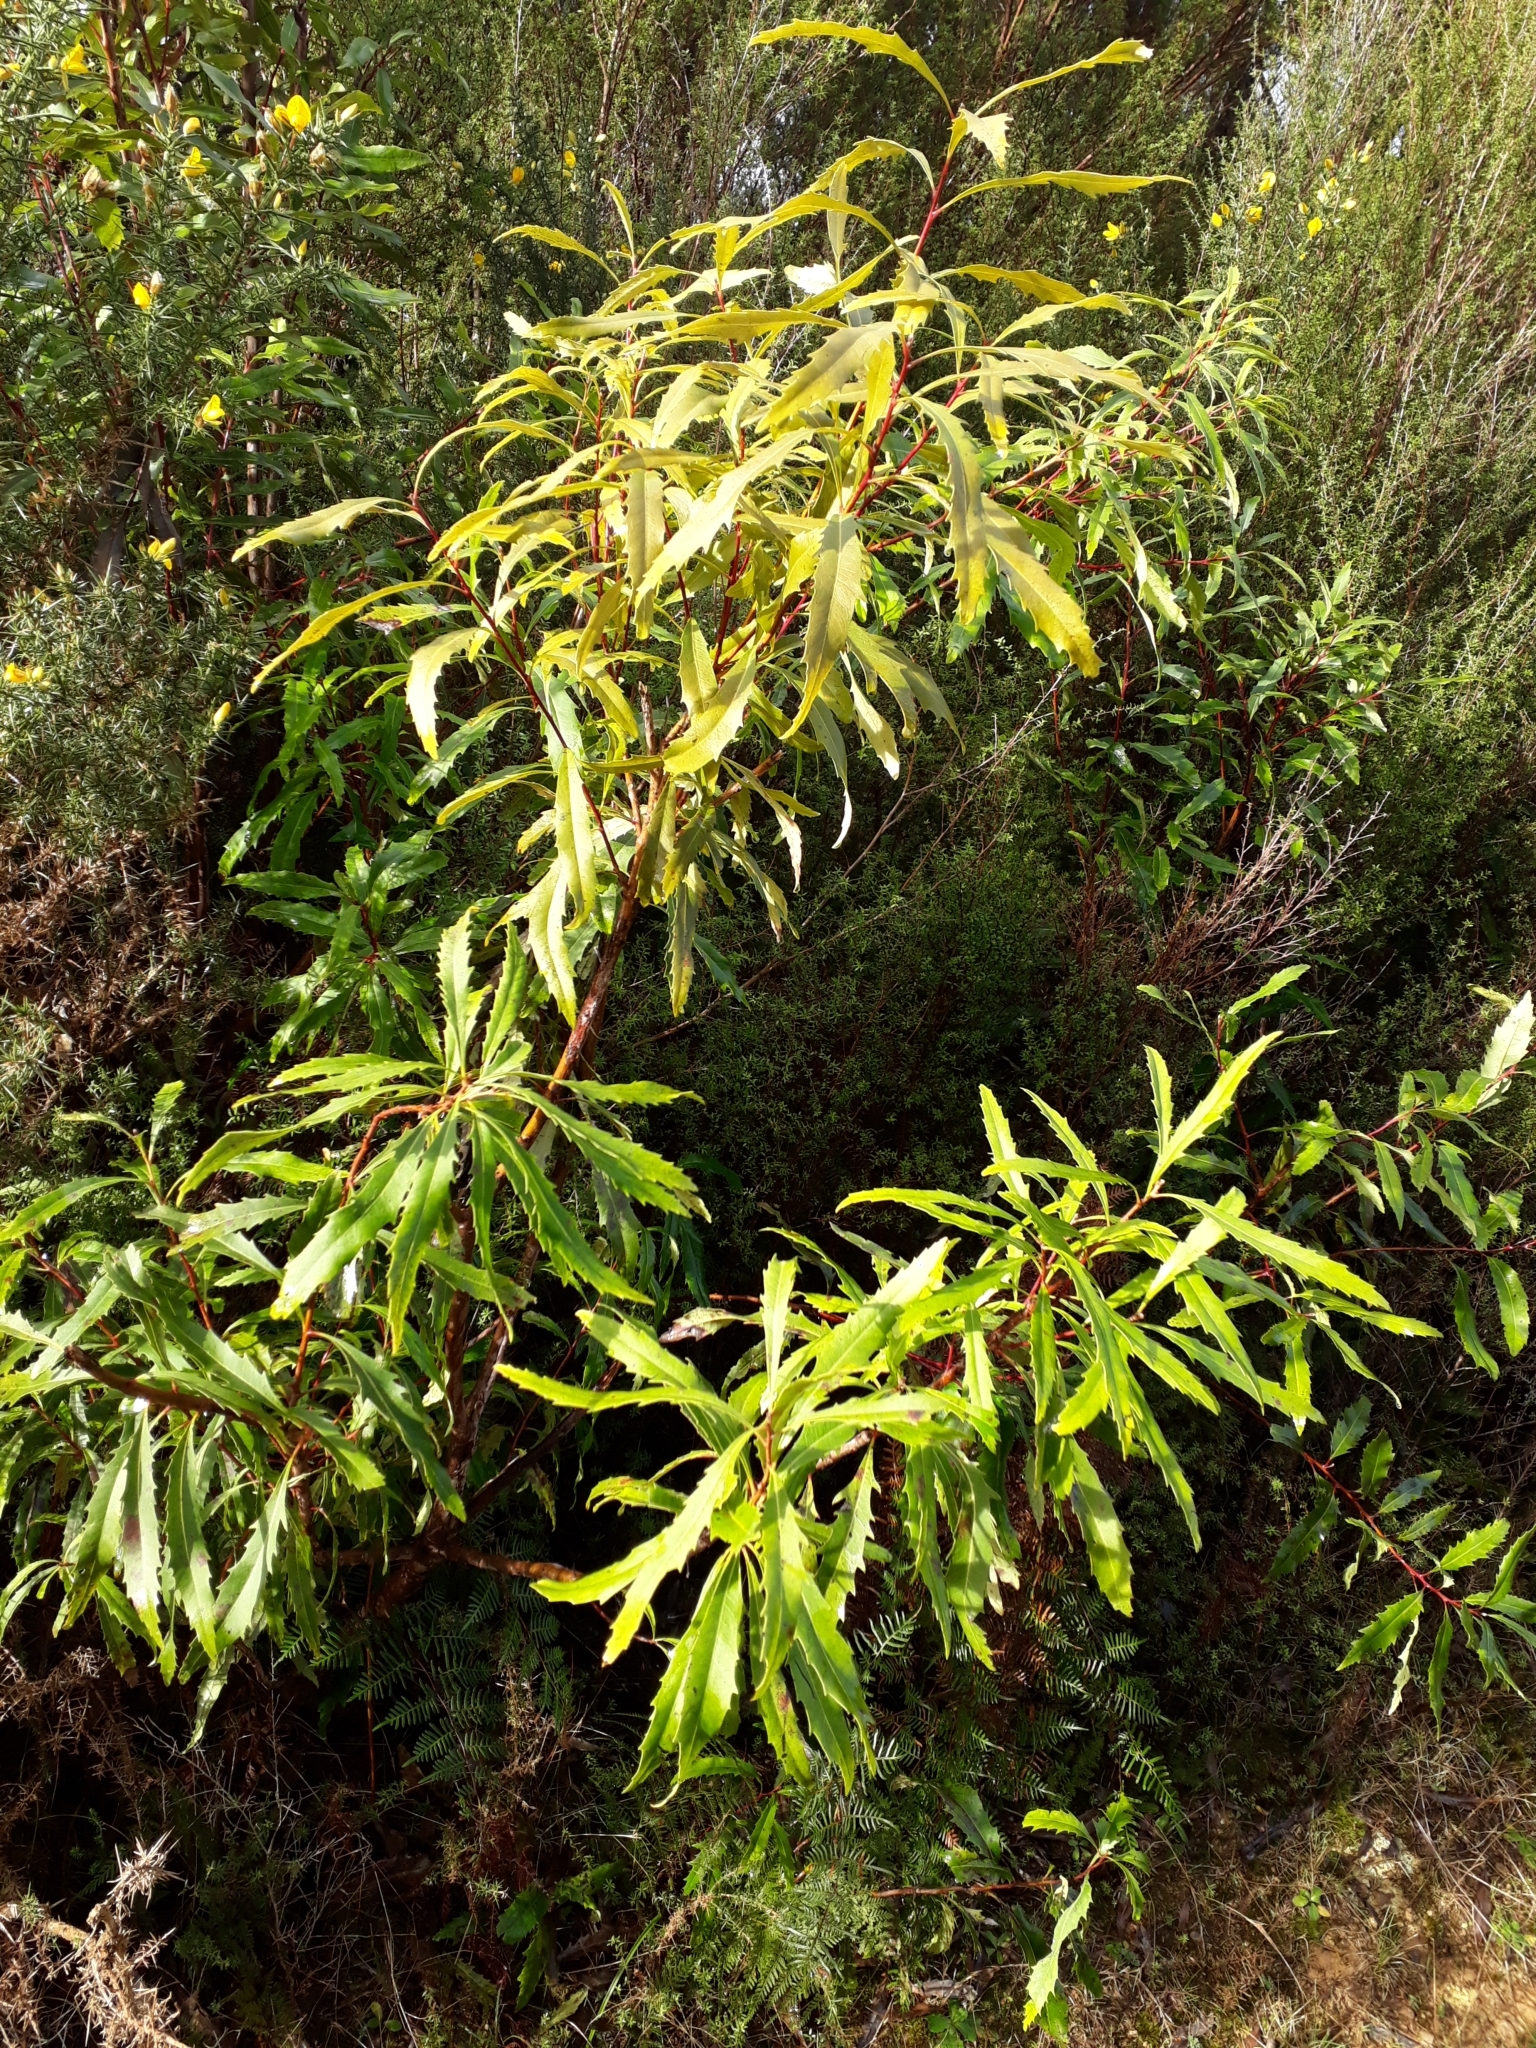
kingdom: Plantae
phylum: Tracheophyta
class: Magnoliopsida
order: Proteales
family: Proteaceae
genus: Lomatia
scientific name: Lomatia fraseri
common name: Forest lomatia
